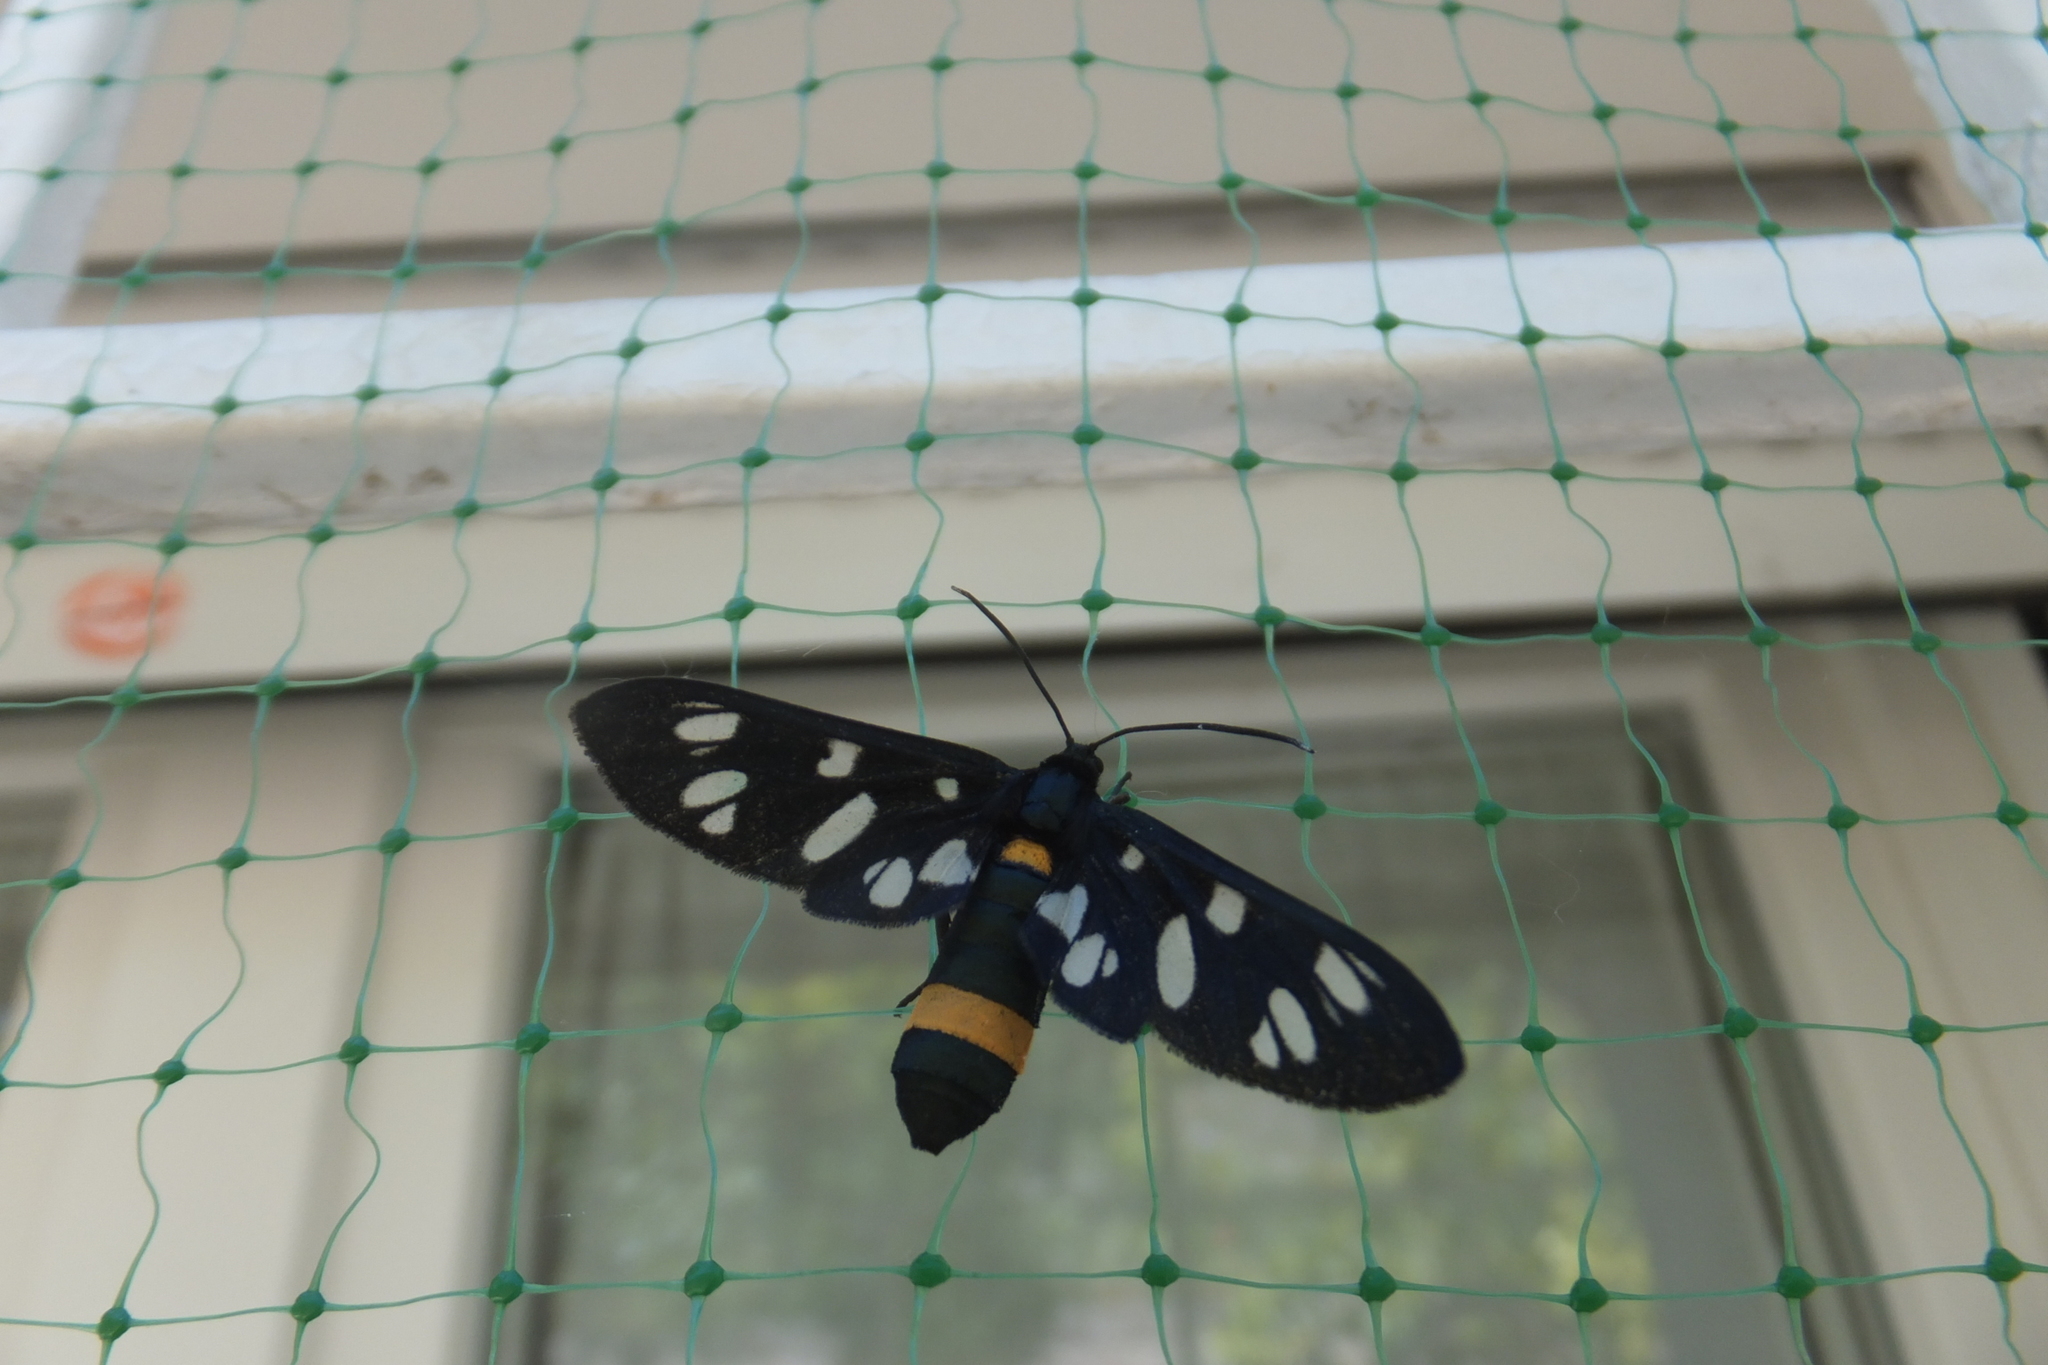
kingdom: Animalia
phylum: Arthropoda
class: Insecta
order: Lepidoptera
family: Erebidae
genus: Amata
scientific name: Amata phegea
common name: Nine-spotted
